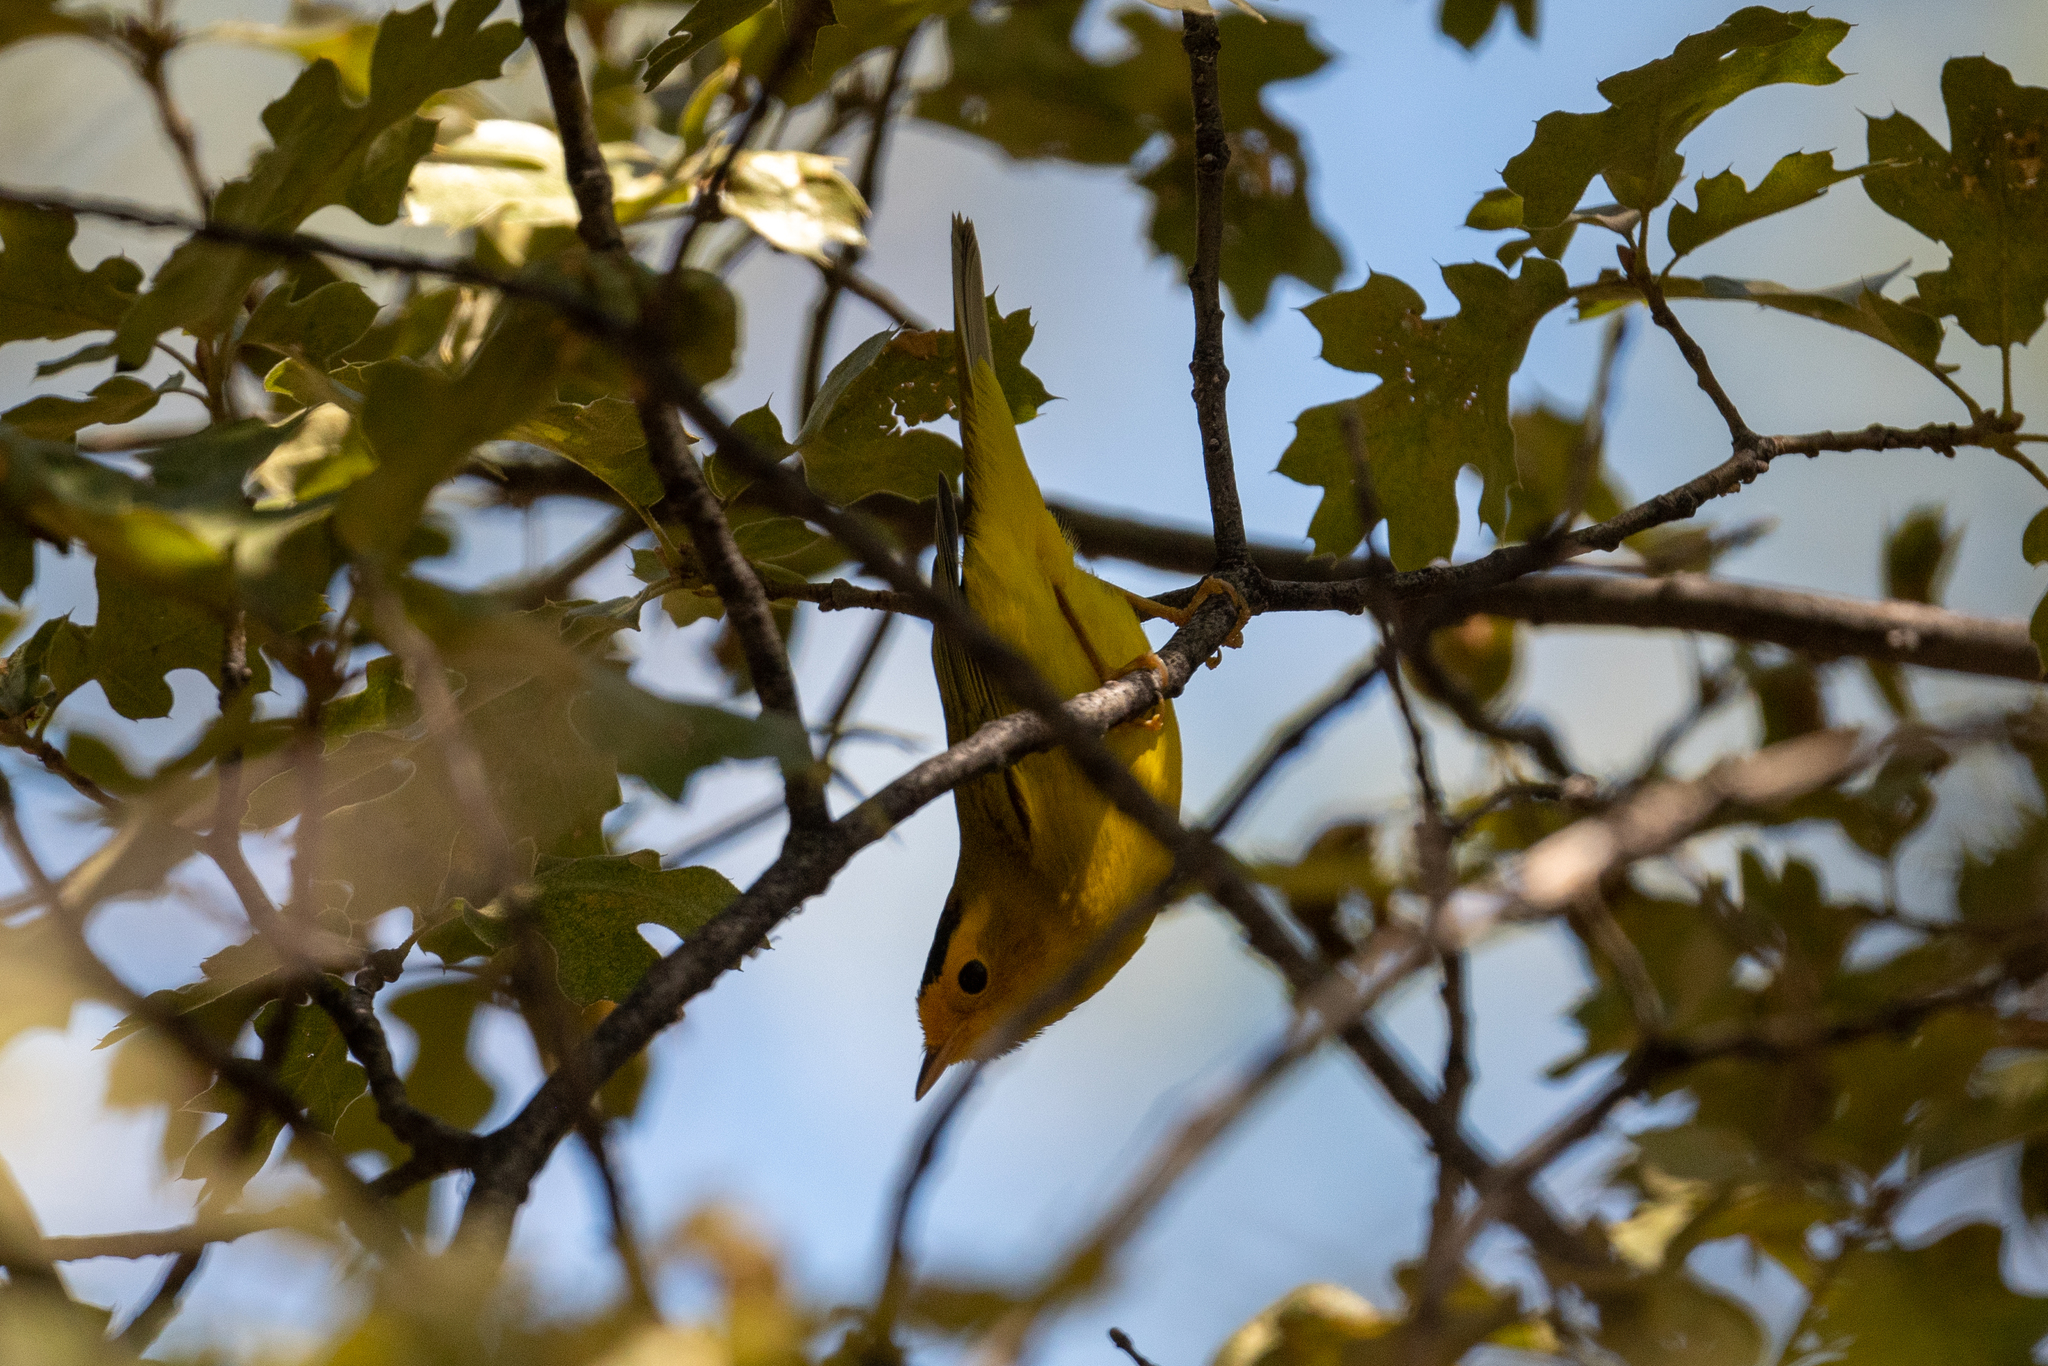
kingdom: Animalia
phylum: Chordata
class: Aves
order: Passeriformes
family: Parulidae
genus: Cardellina
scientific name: Cardellina pusilla
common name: Wilson's warbler
